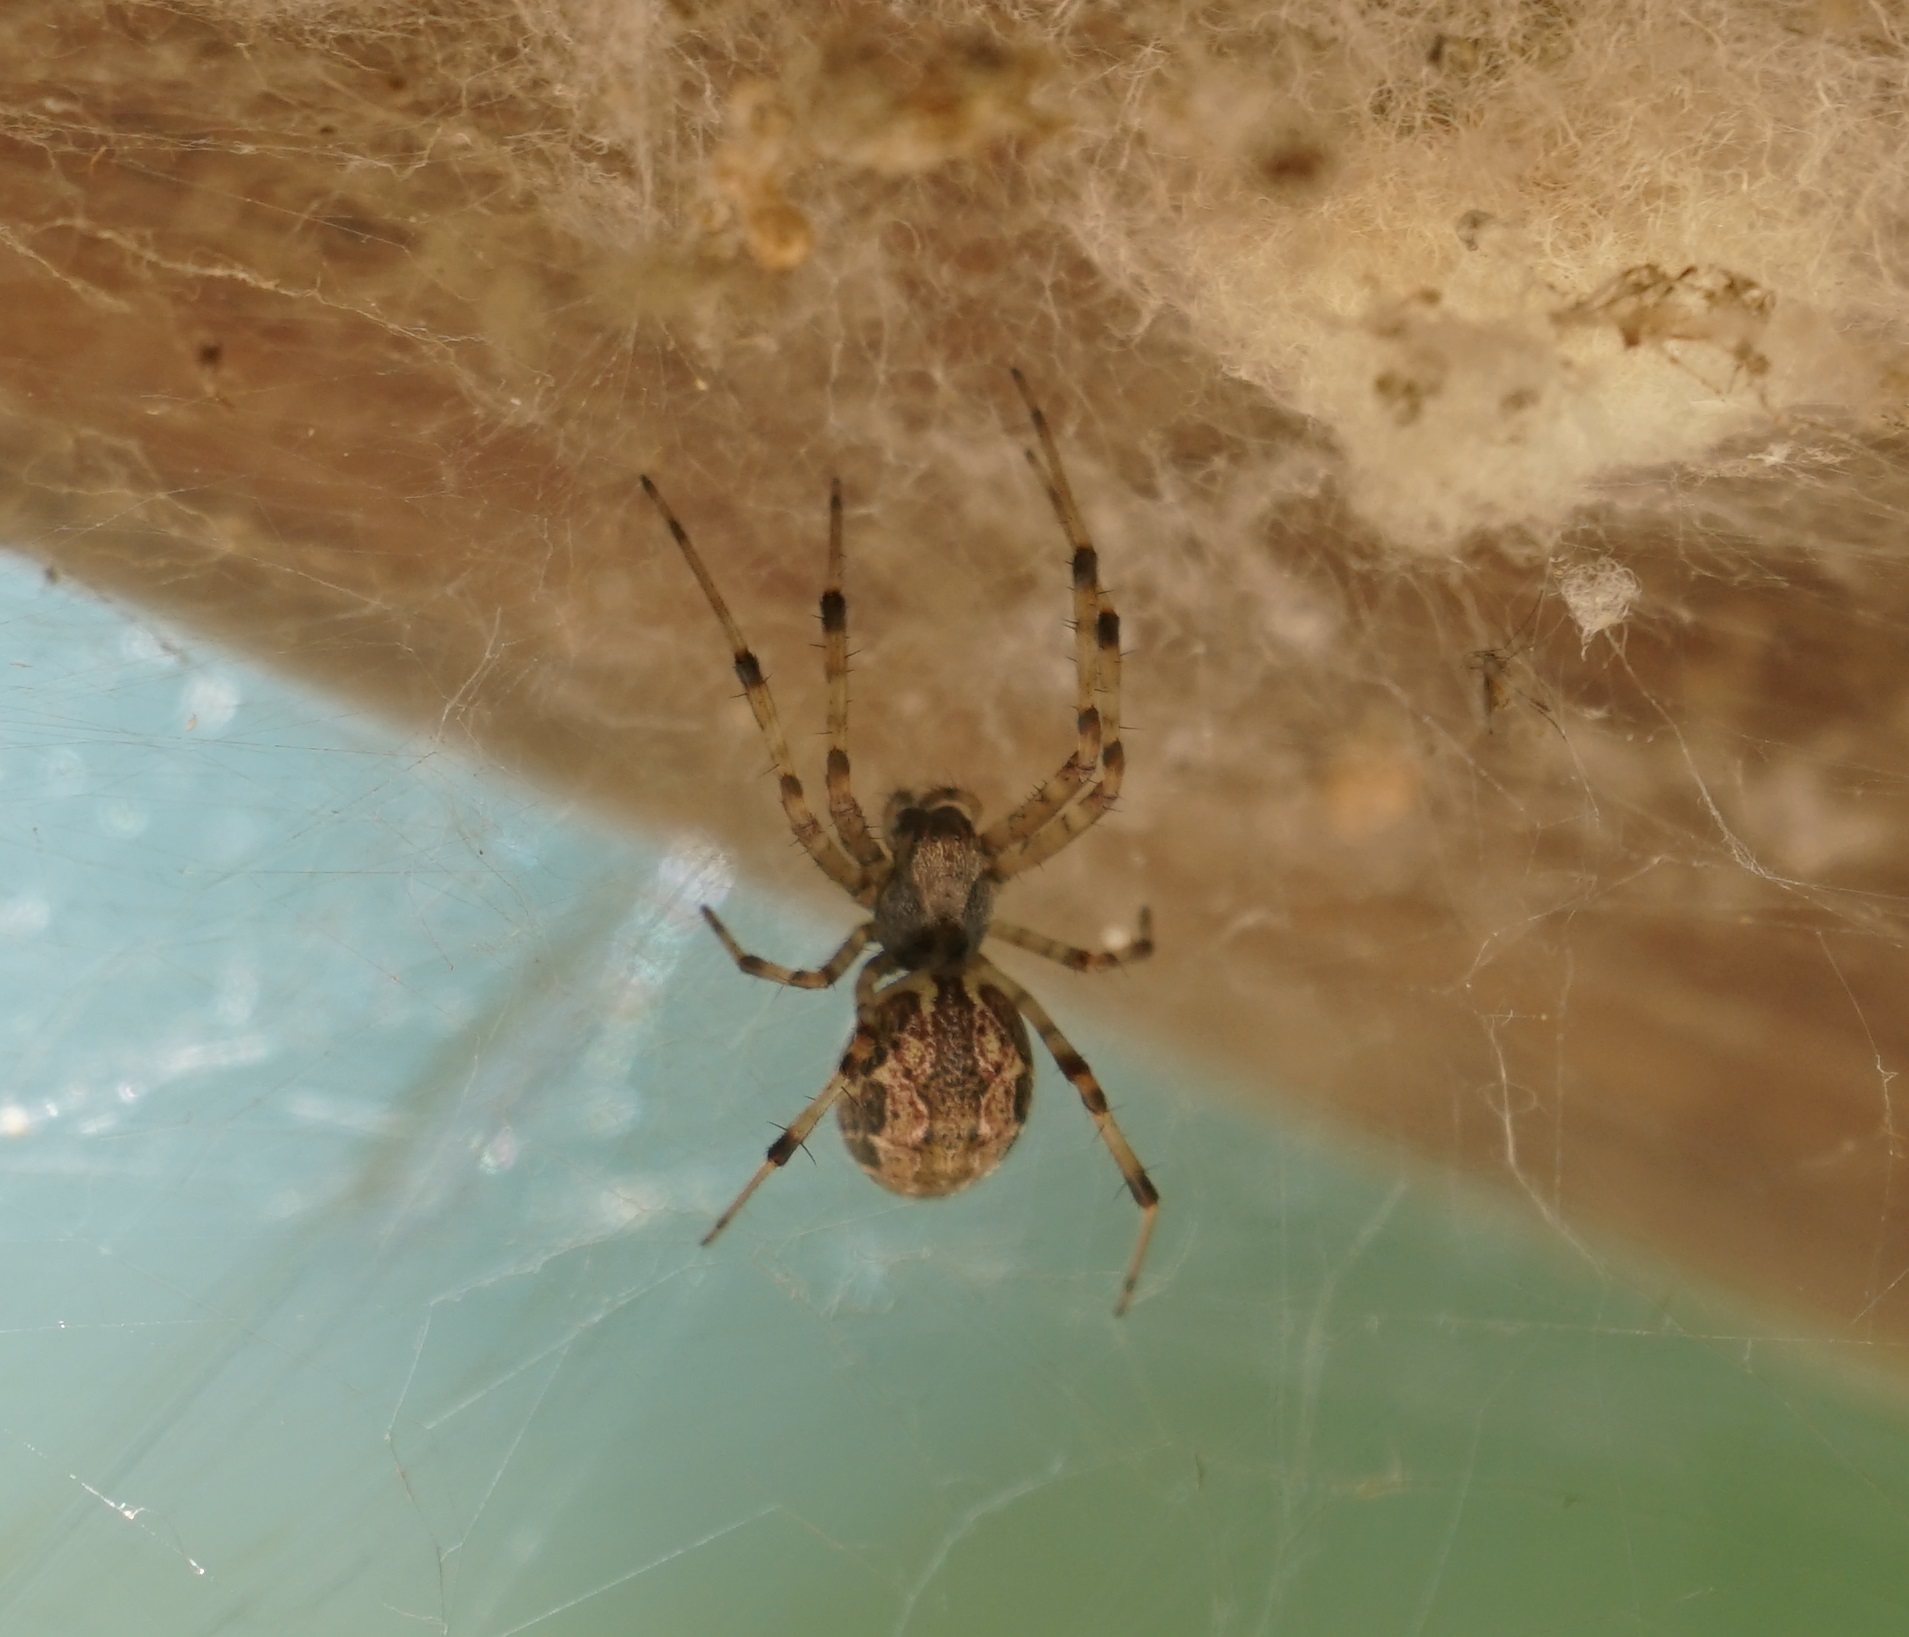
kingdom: Animalia
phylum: Arthropoda
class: Arachnida
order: Araneae
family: Araneidae
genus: Nephilengys
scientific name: Nephilengys papuana
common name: Papuan hermit spider
